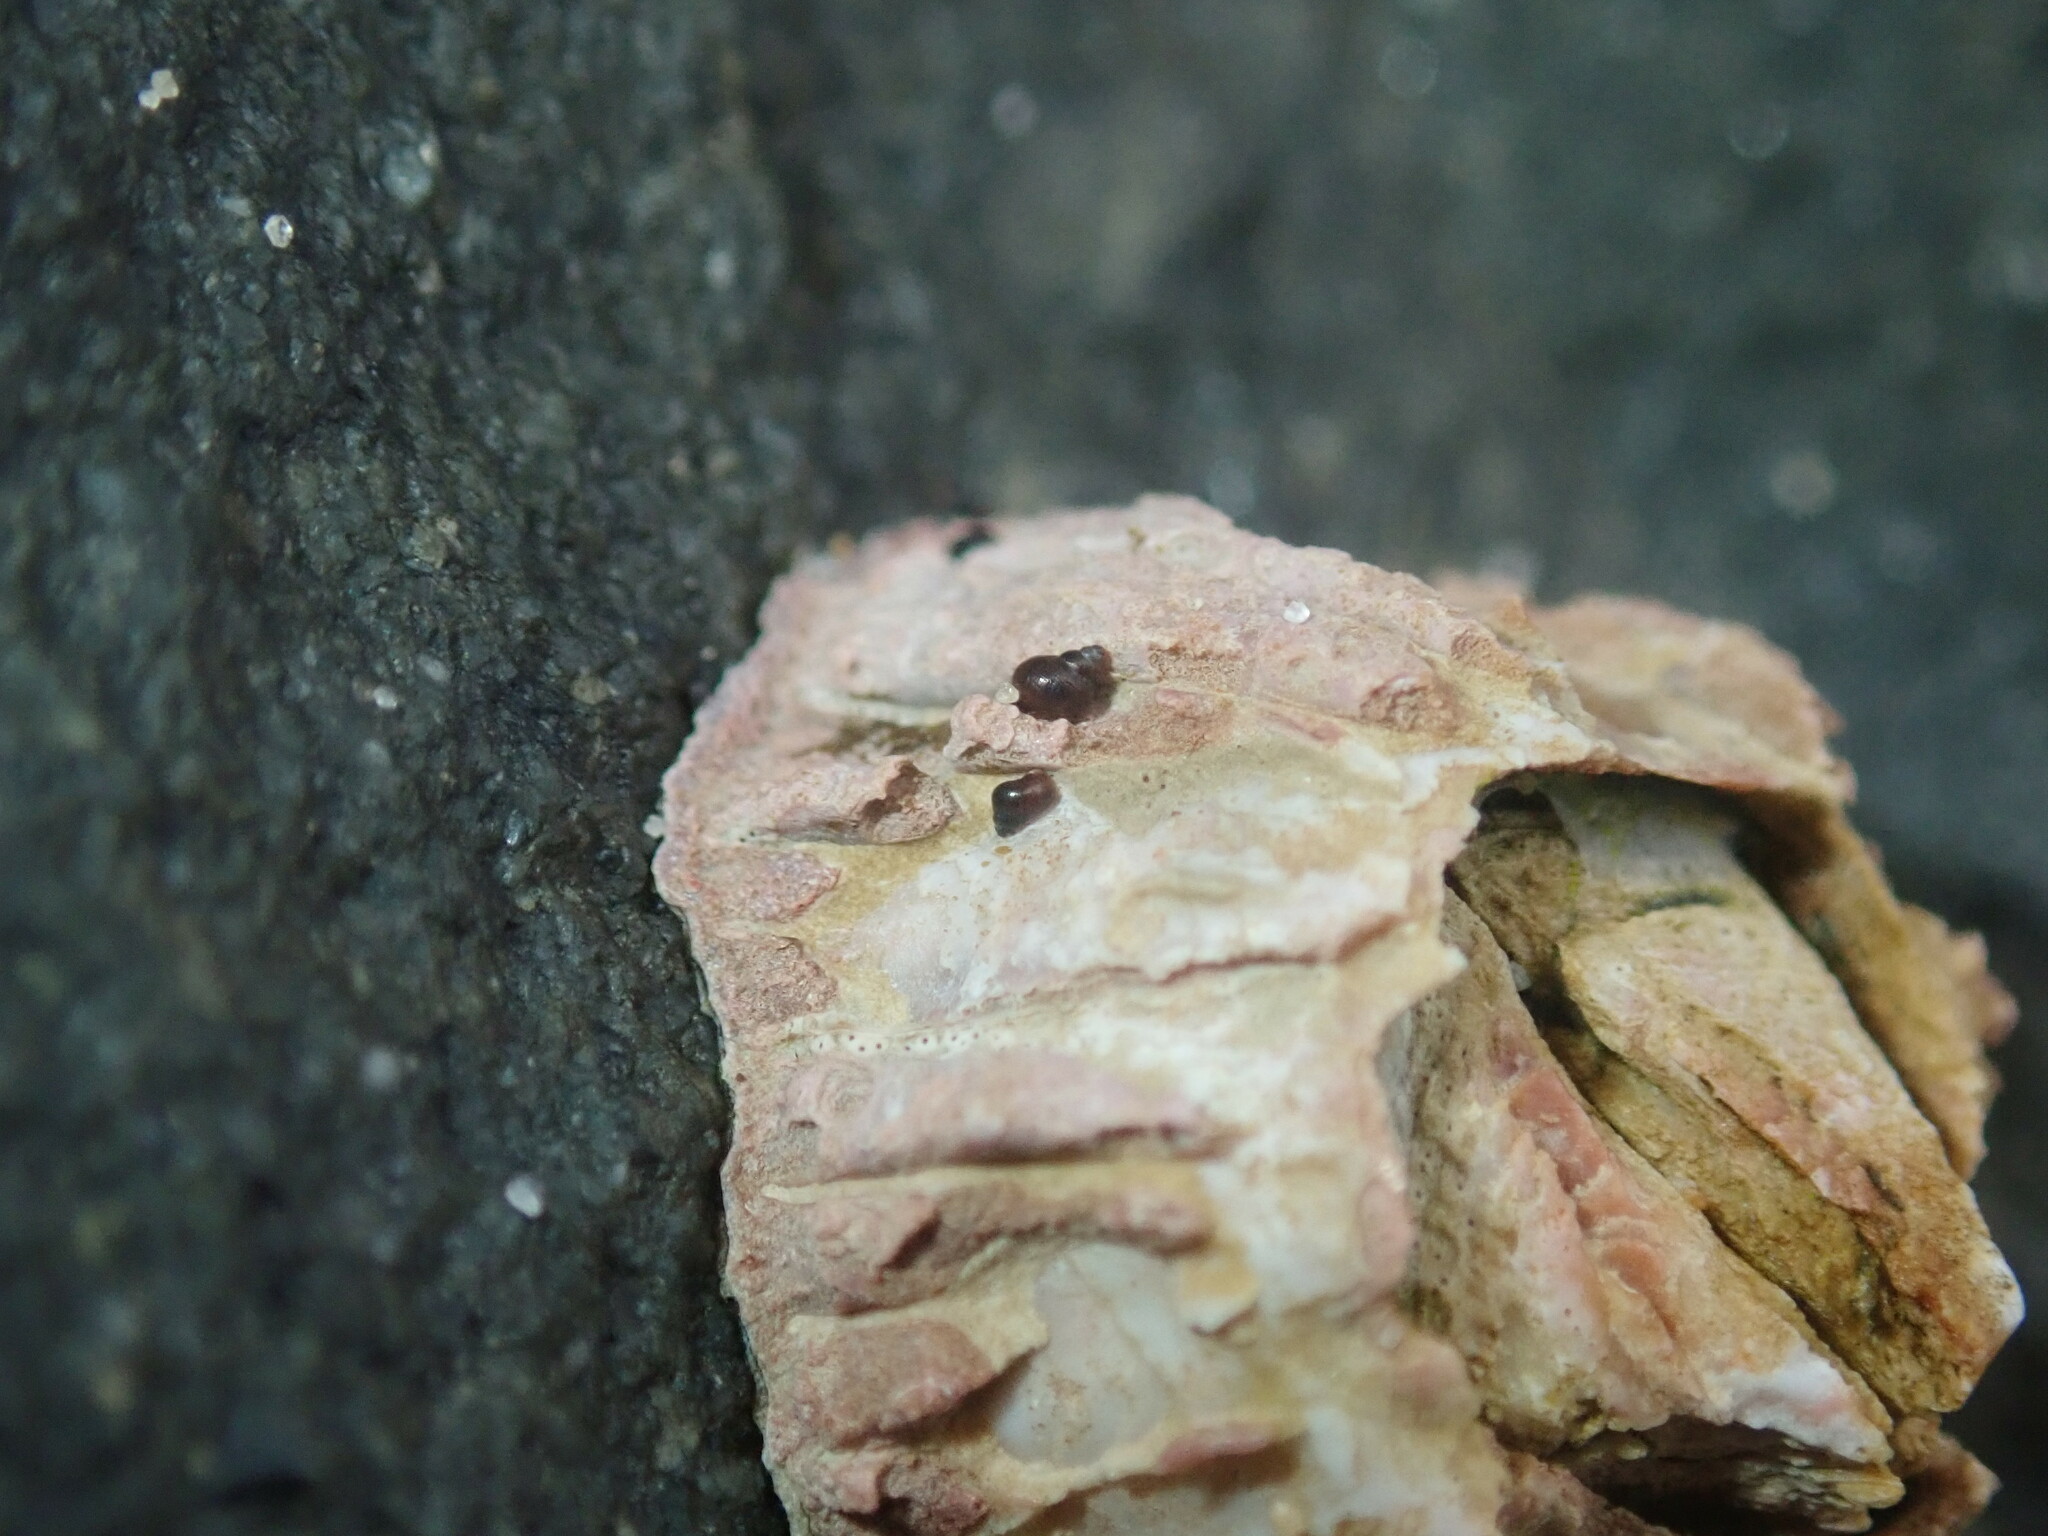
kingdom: Animalia
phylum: Mollusca
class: Gastropoda
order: Littorinimorpha
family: Littorinidae
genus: Afrolittorina
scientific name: Afrolittorina acutispira
